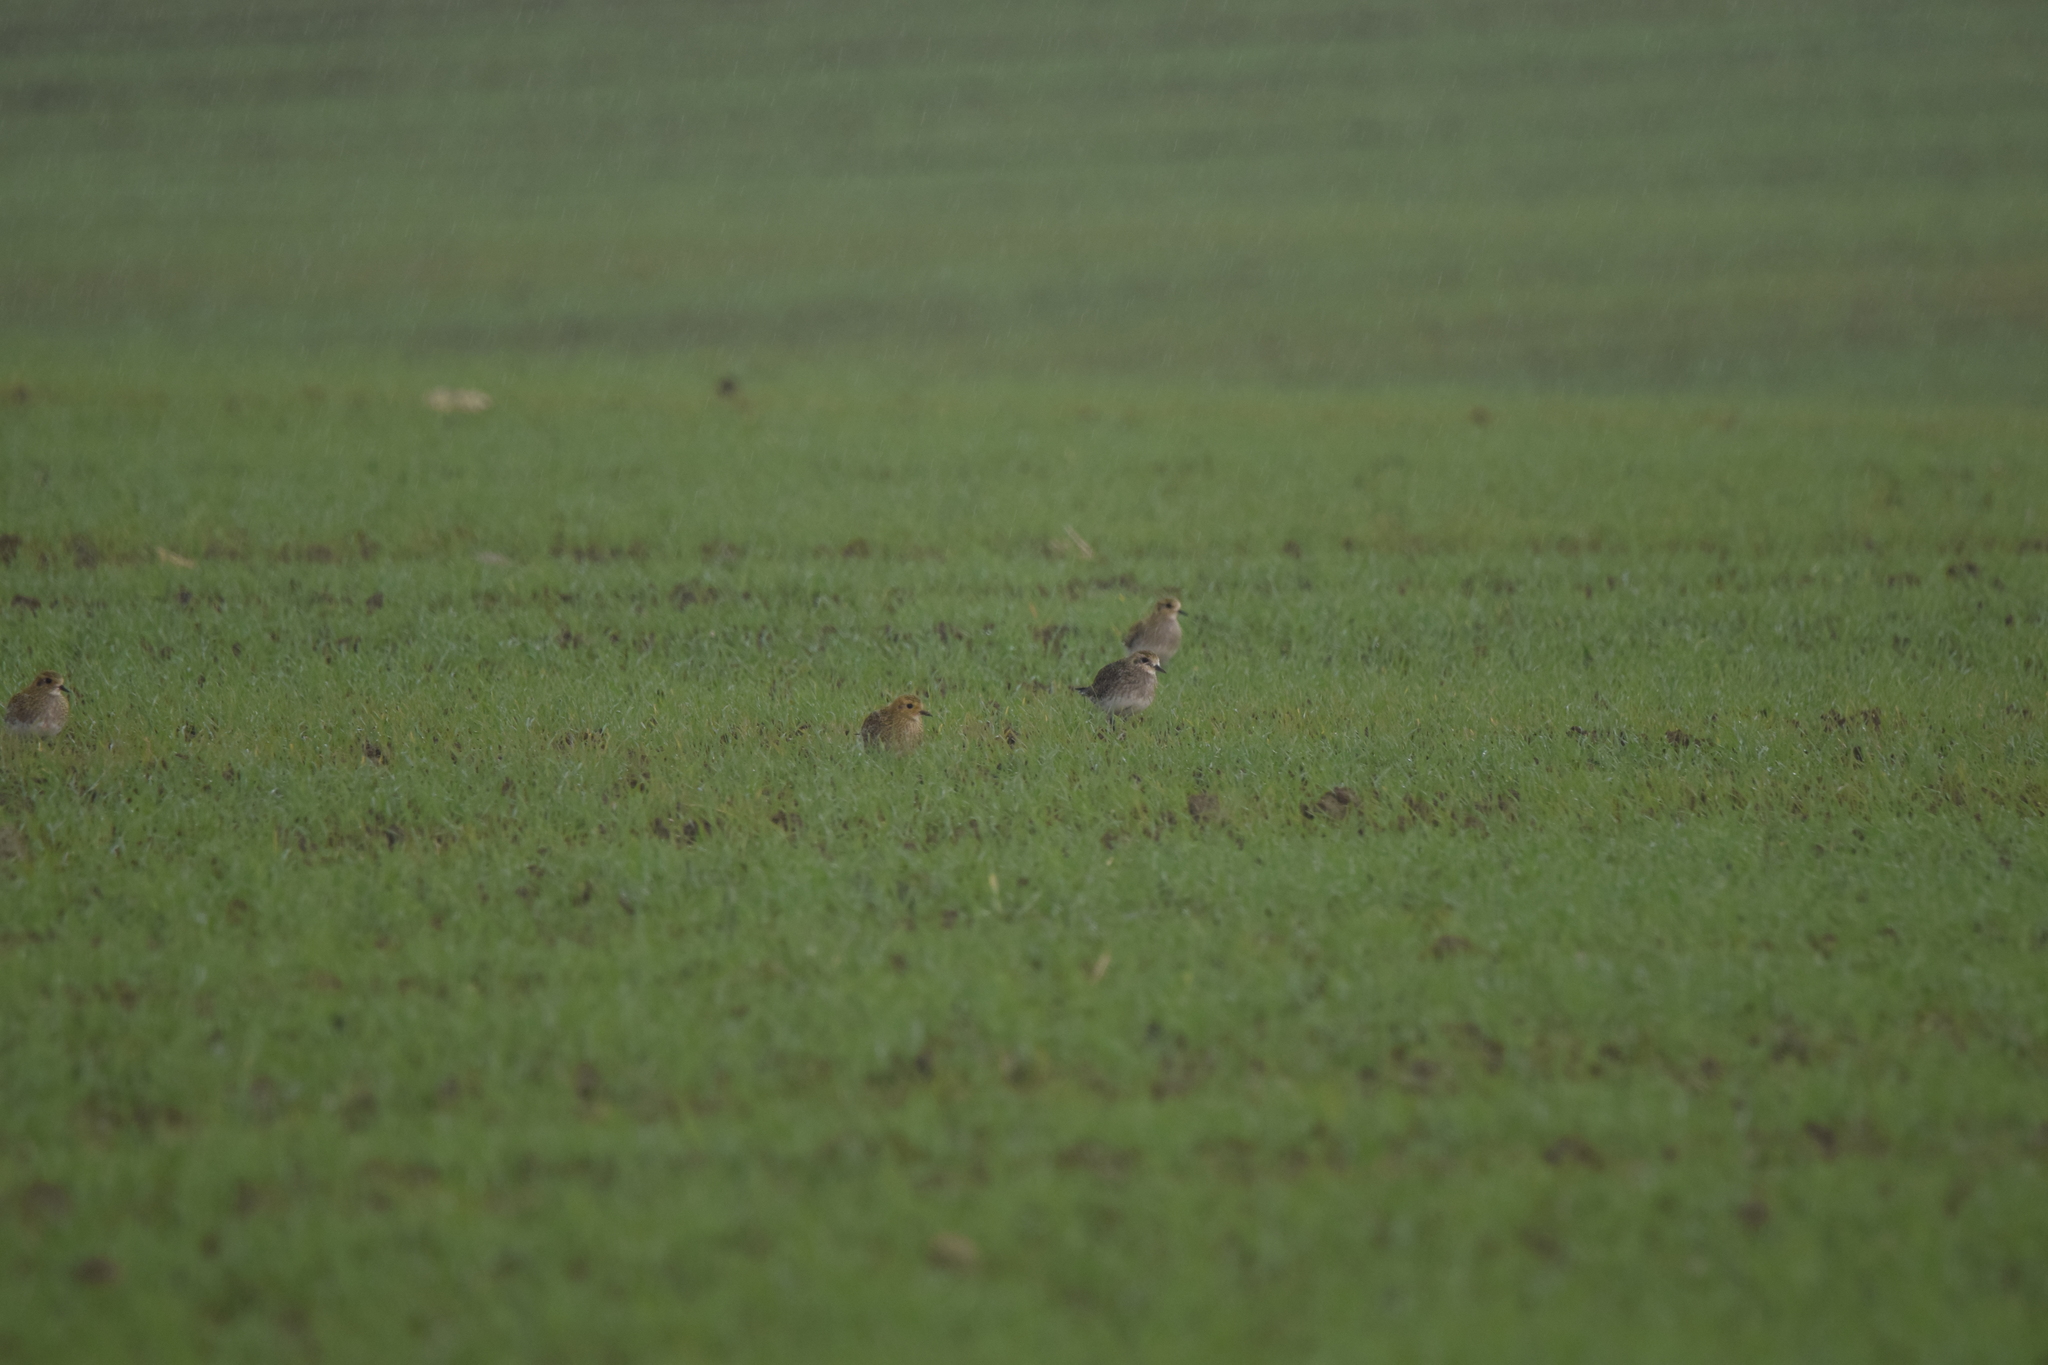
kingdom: Animalia
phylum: Chordata
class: Aves
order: Charadriiformes
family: Charadriidae
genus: Pluvialis
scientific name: Pluvialis apricaria
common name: European golden plover
